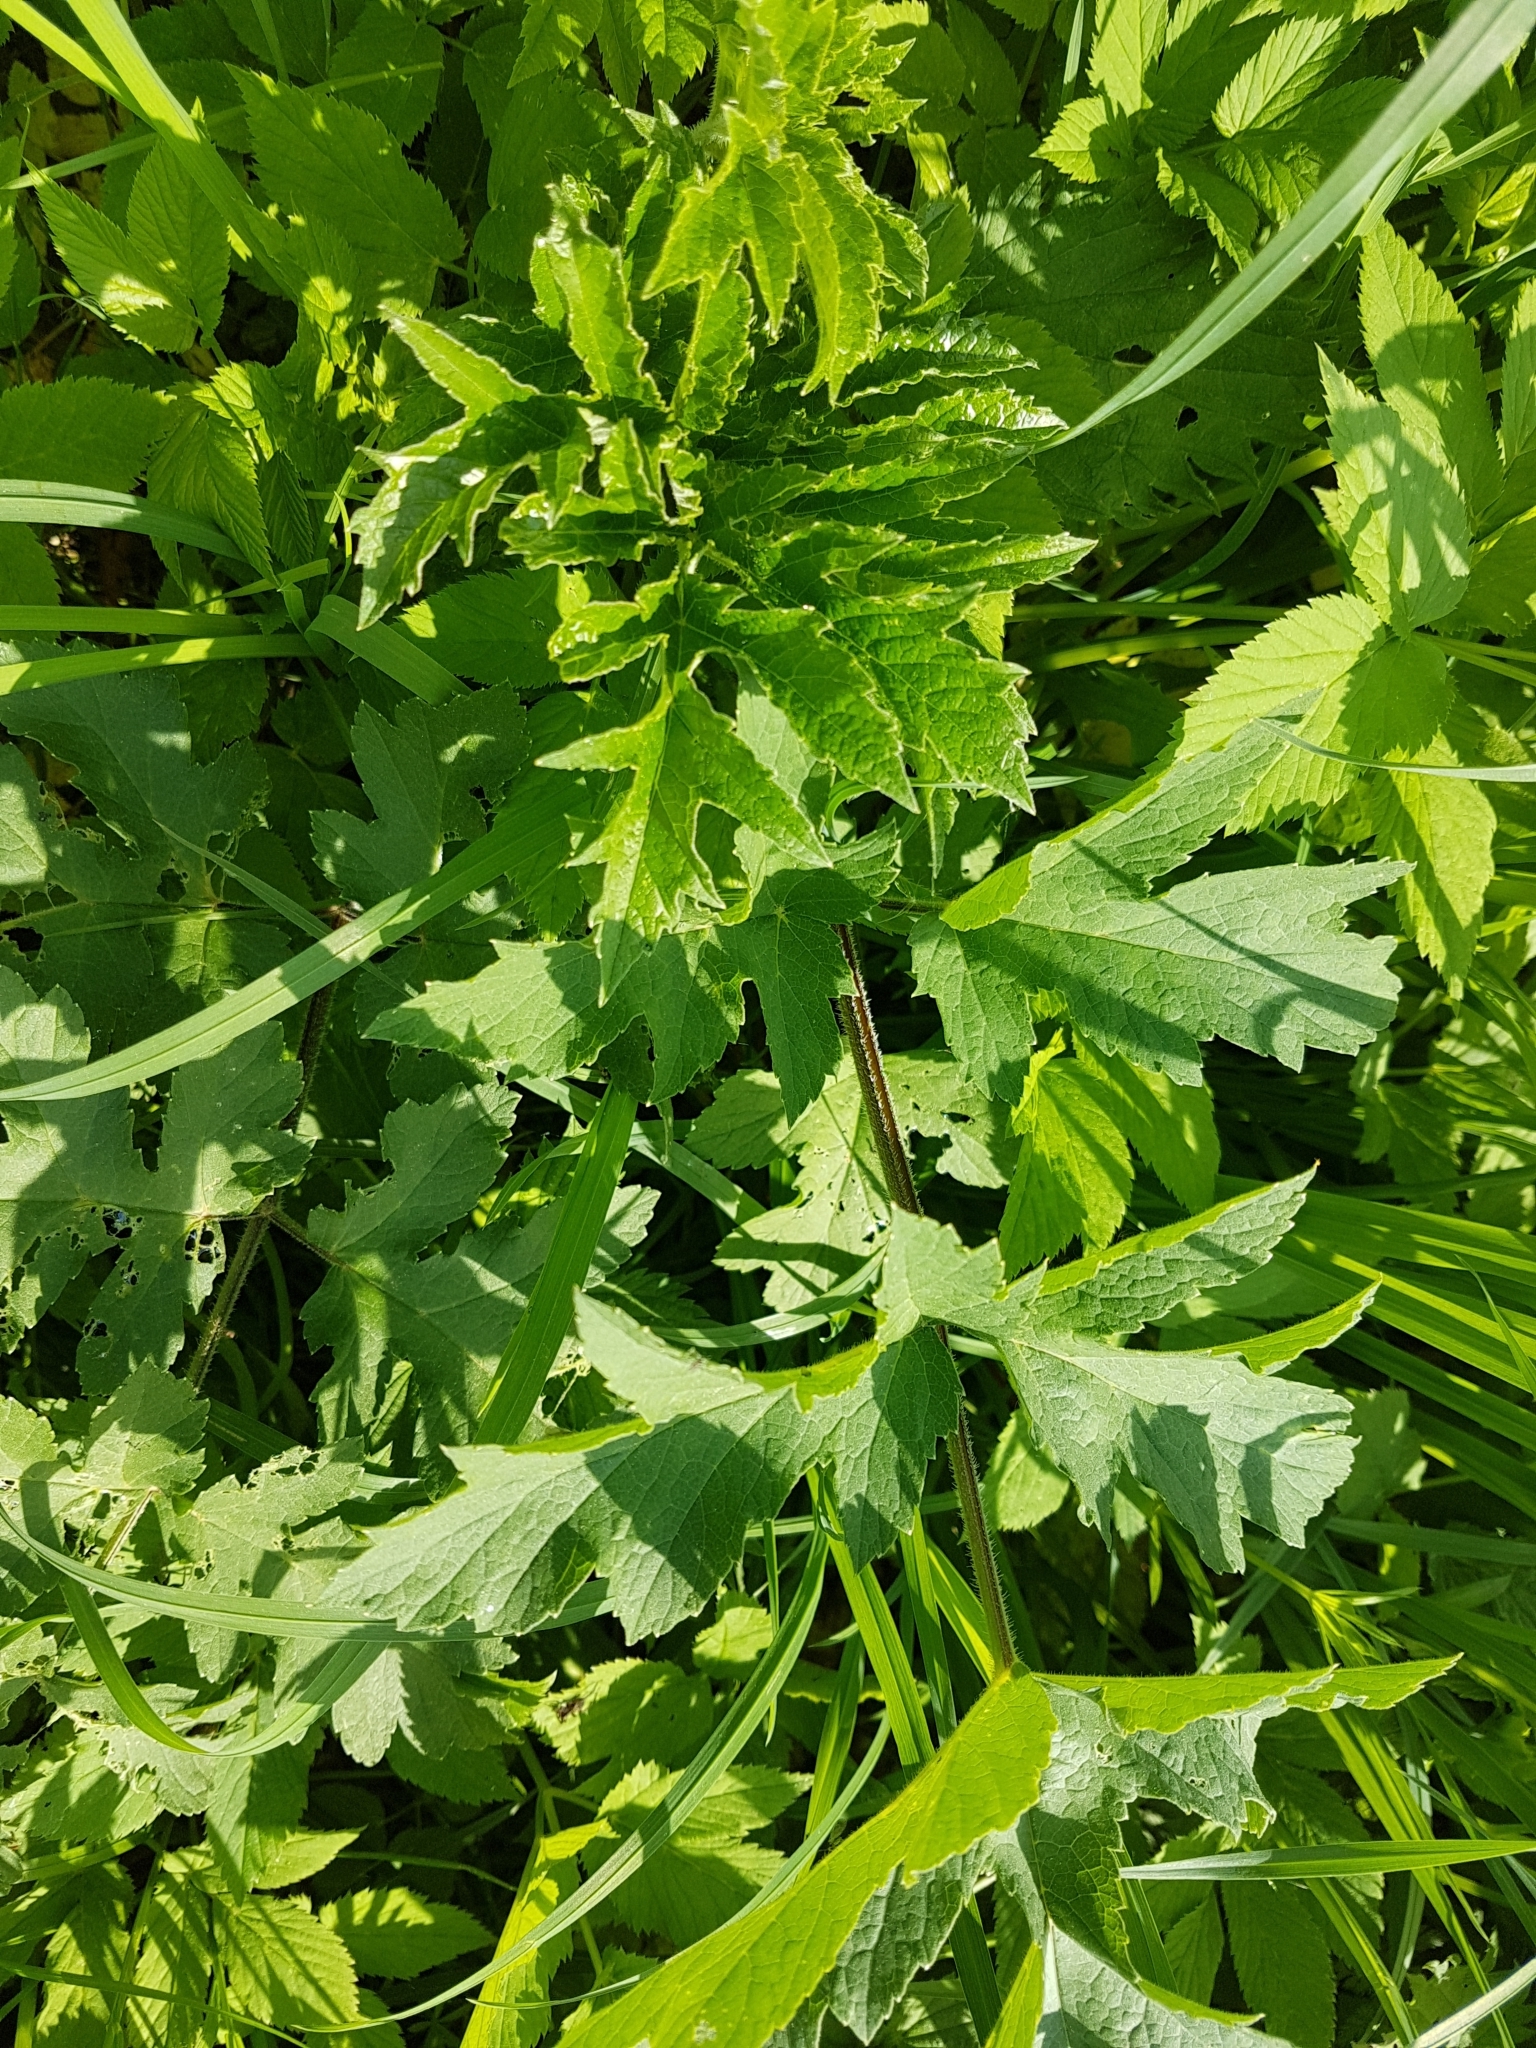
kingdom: Plantae
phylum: Tracheophyta
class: Magnoliopsida
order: Apiales
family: Apiaceae
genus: Heracleum
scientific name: Heracleum sphondylium
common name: Hogweed
